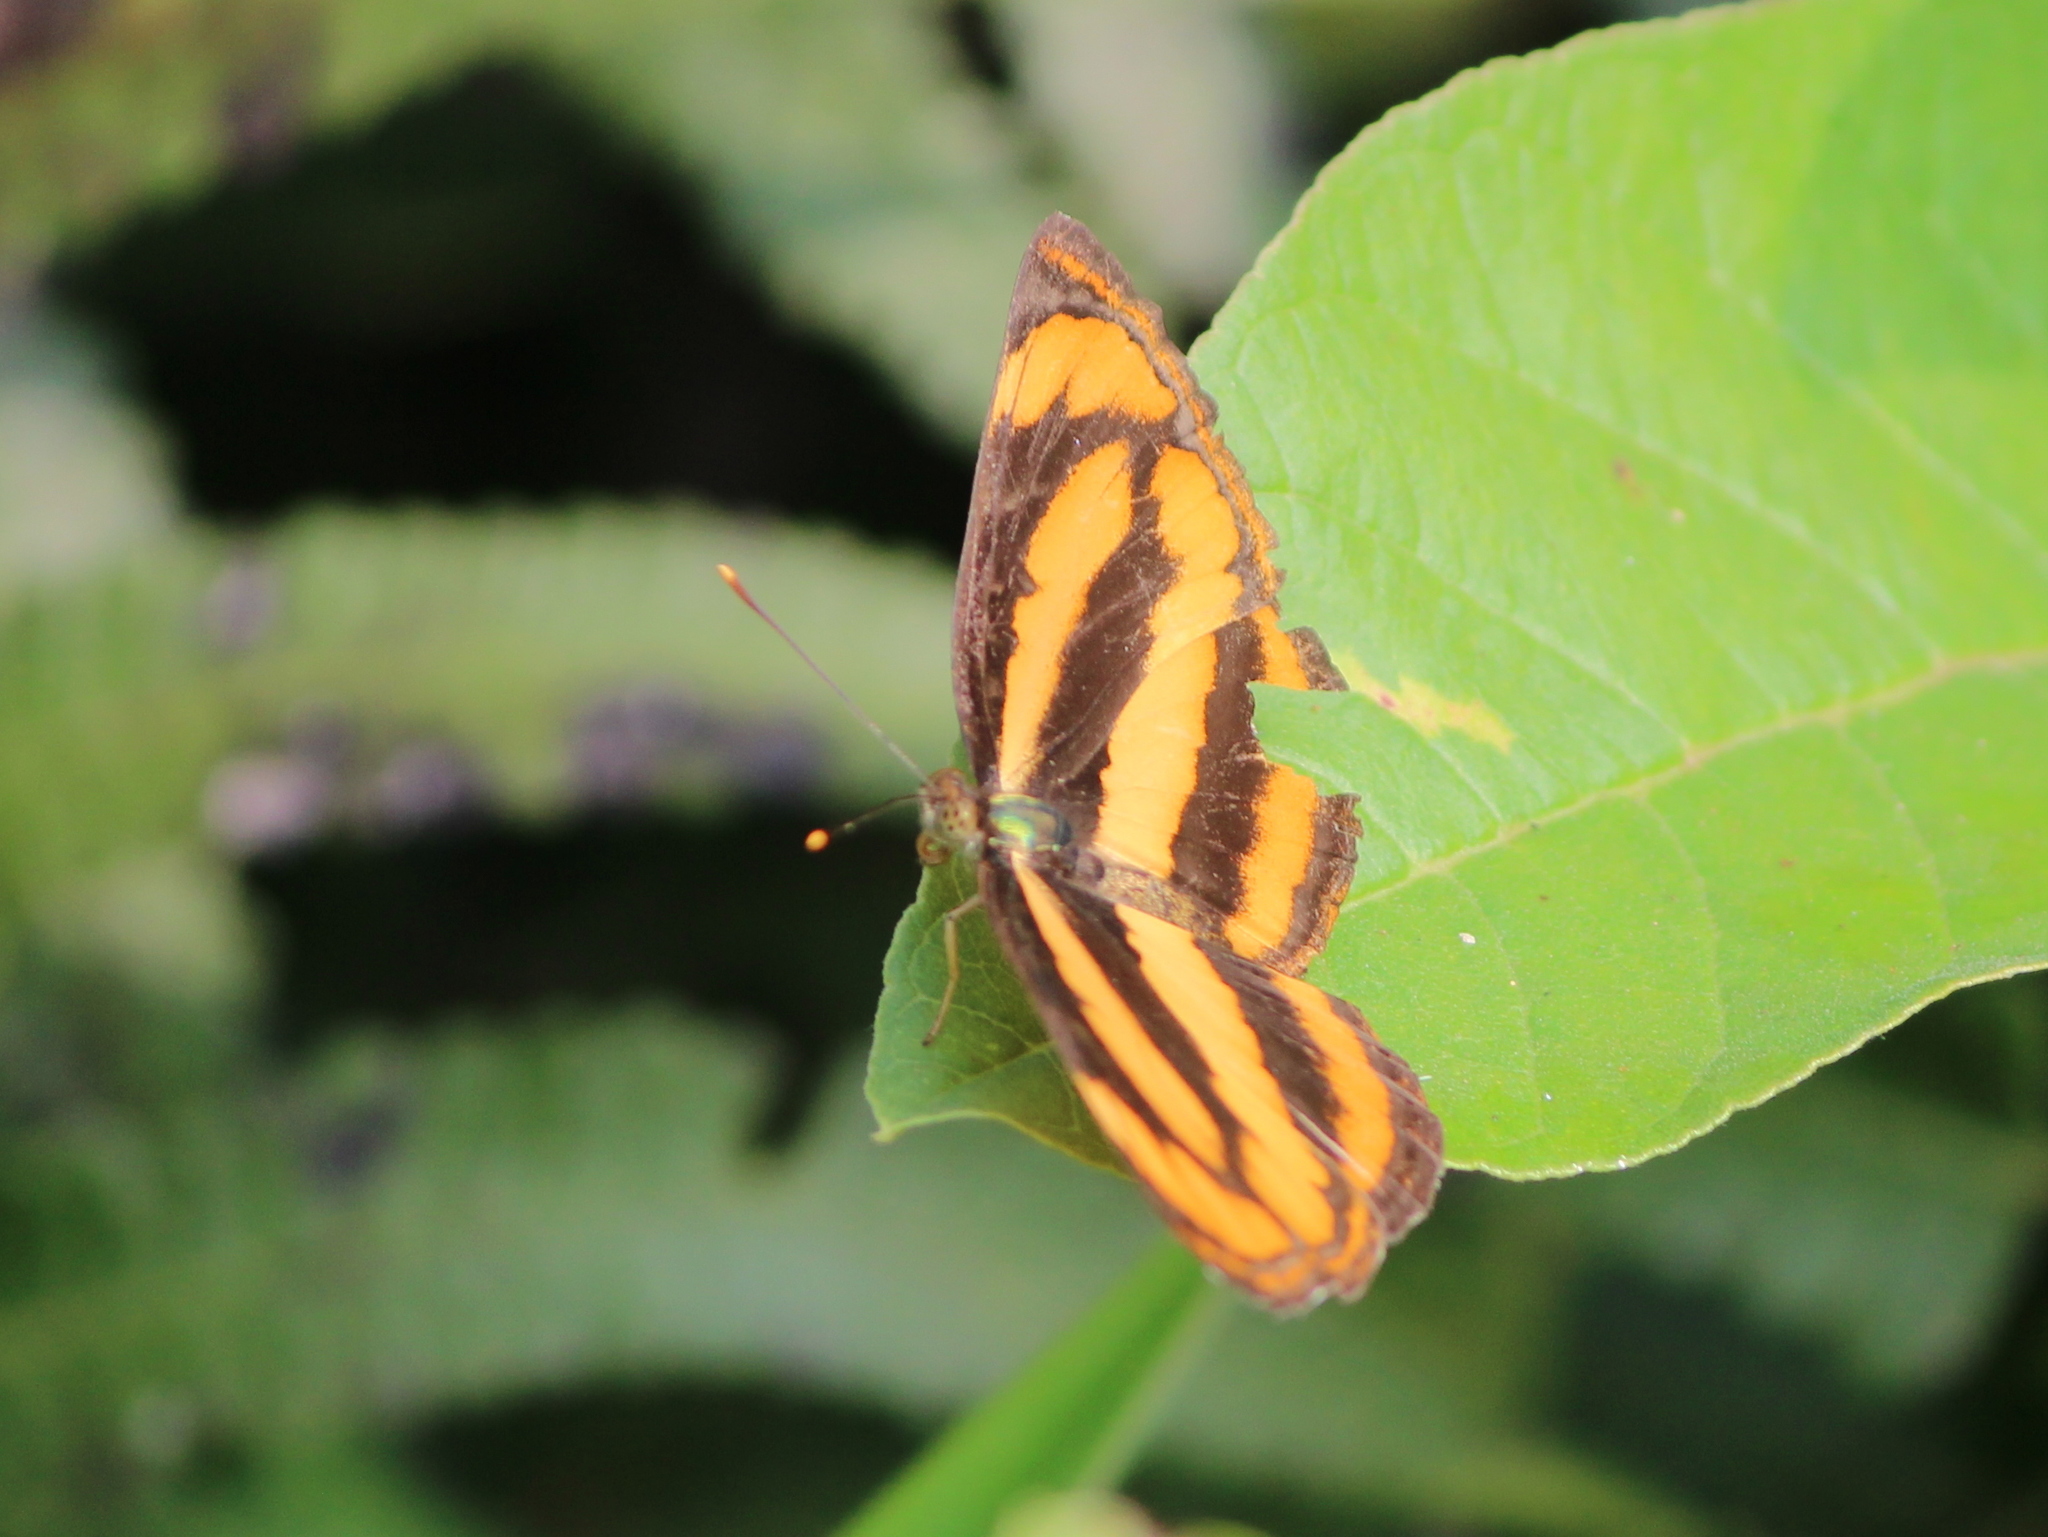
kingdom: Animalia
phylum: Arthropoda
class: Insecta
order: Lepidoptera
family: Nymphalidae
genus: Pantoporia
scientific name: Pantoporia hordonia
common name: Common lascar
